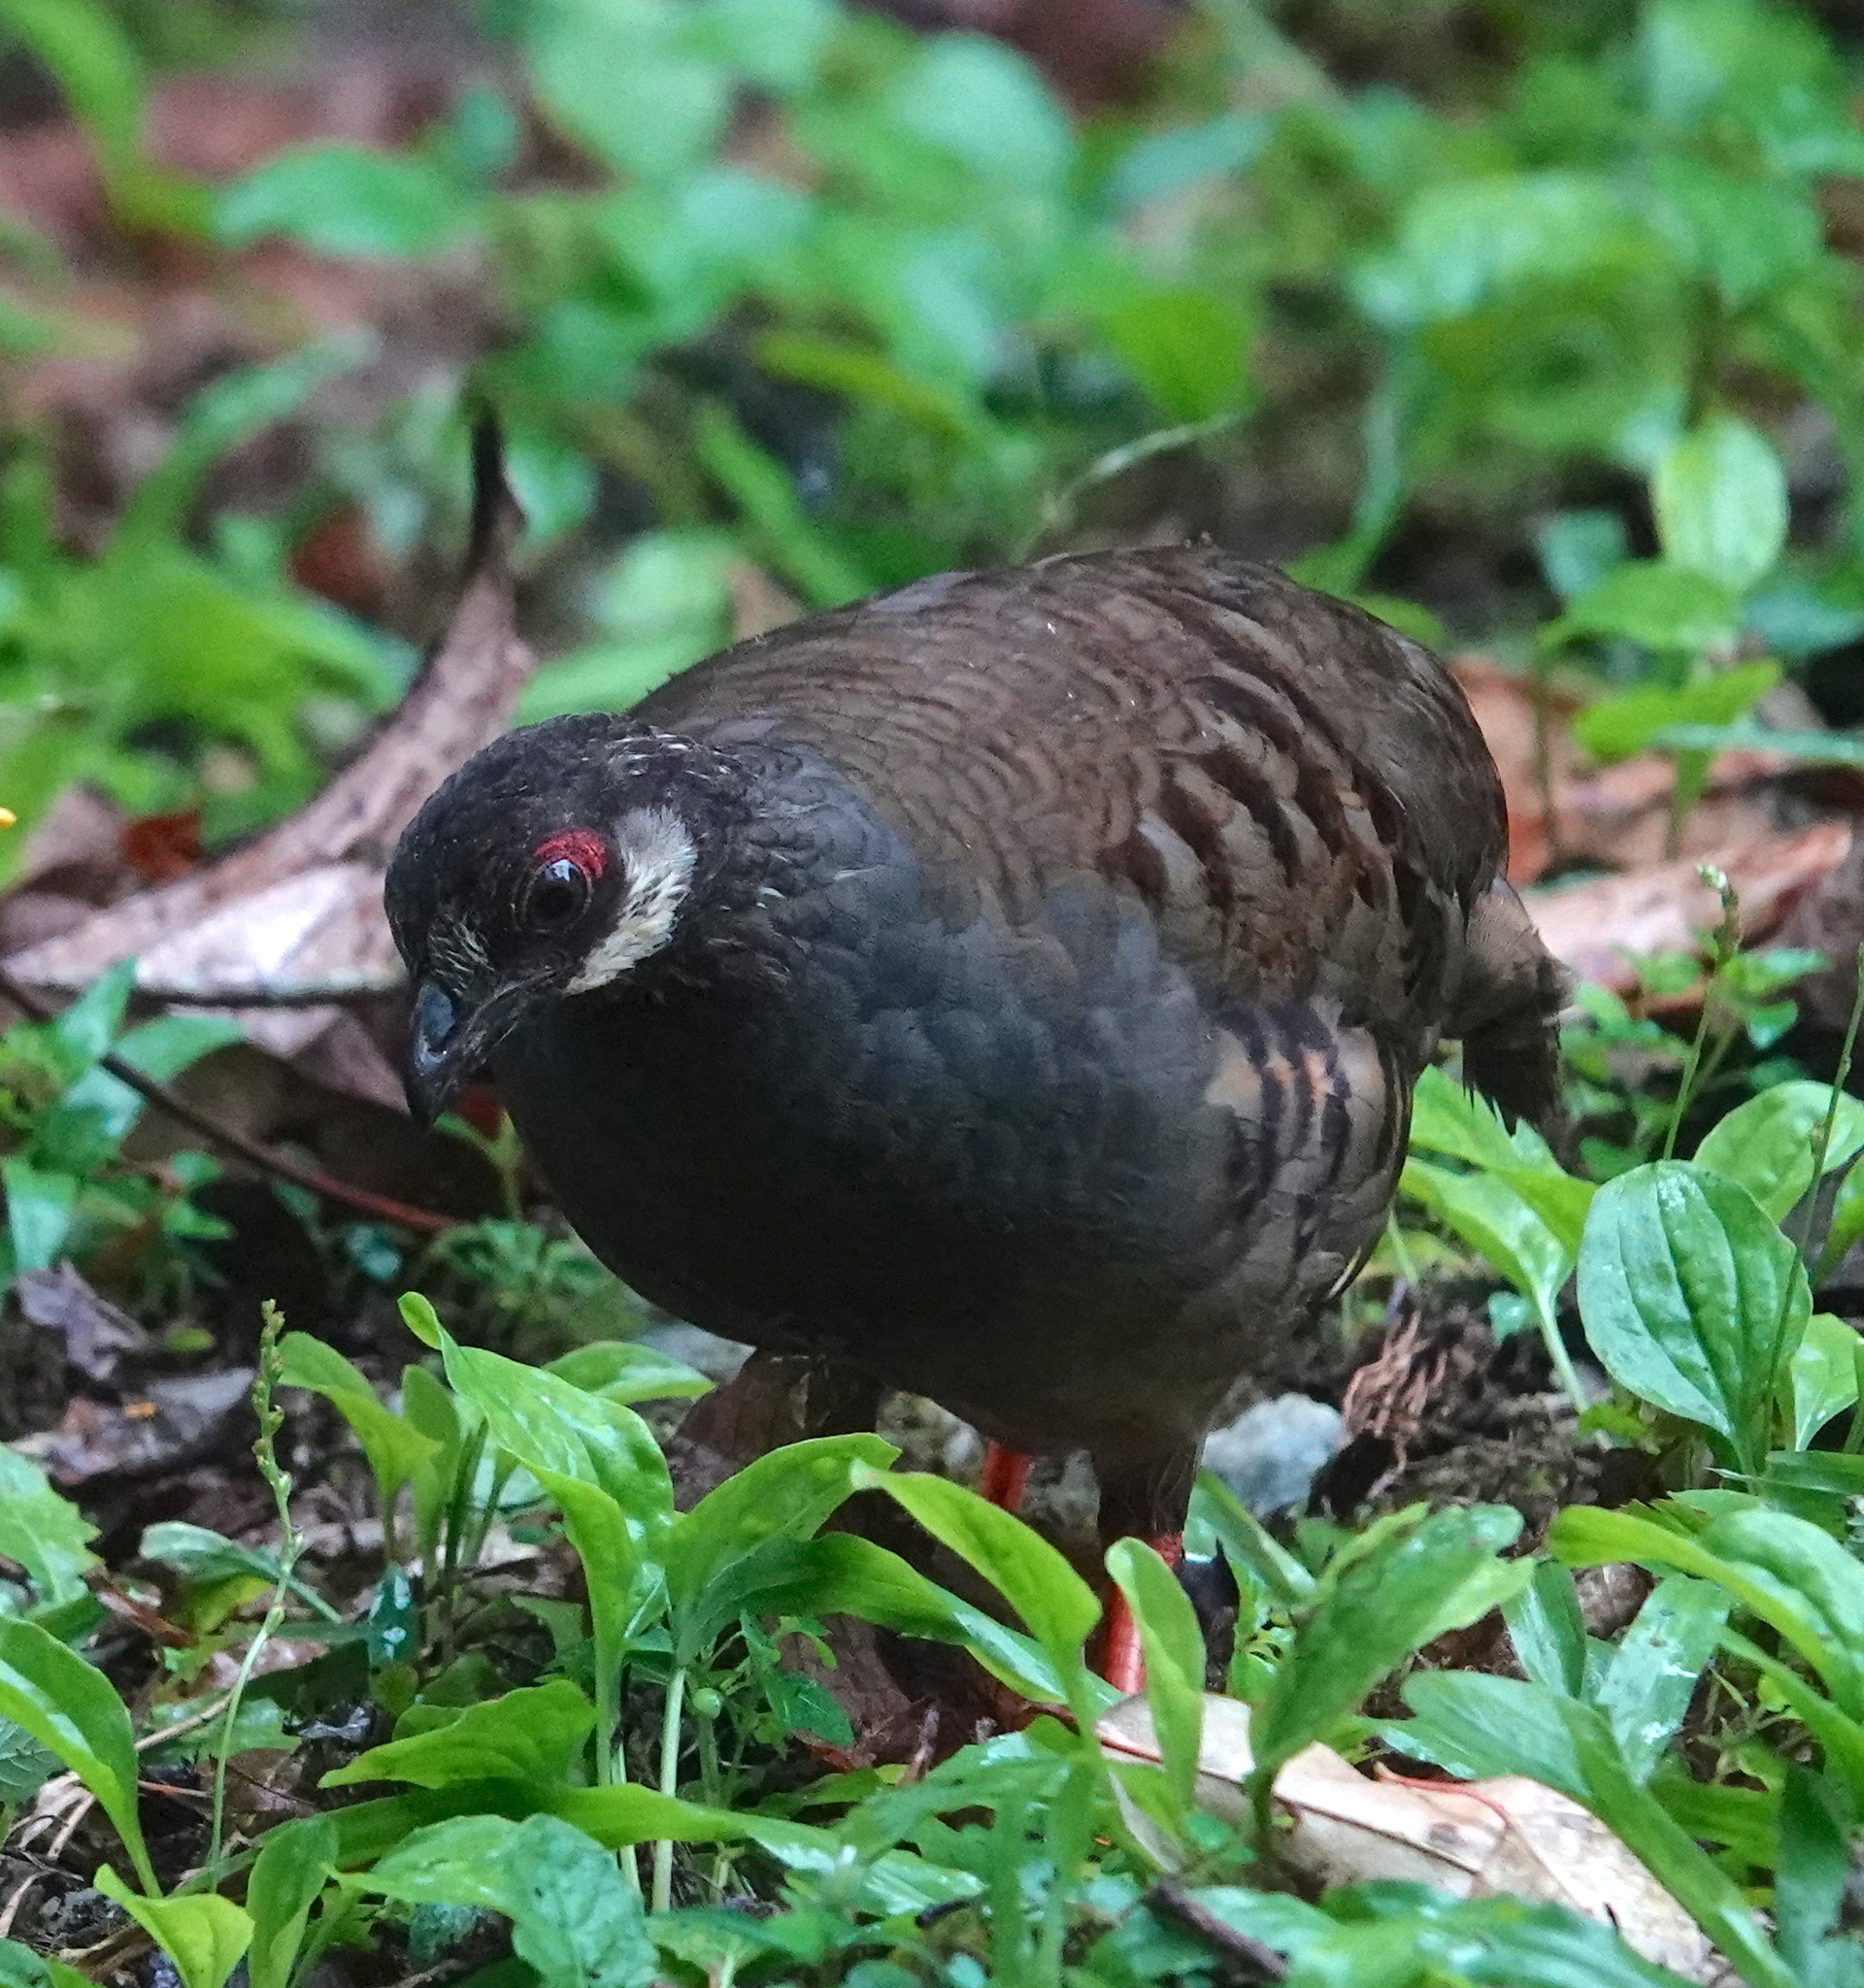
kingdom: Animalia
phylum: Chordata
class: Aves
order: Galliformes
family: Phasianidae
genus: Arborophila
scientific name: Arborophila campbelli
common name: Malaysian partridge
